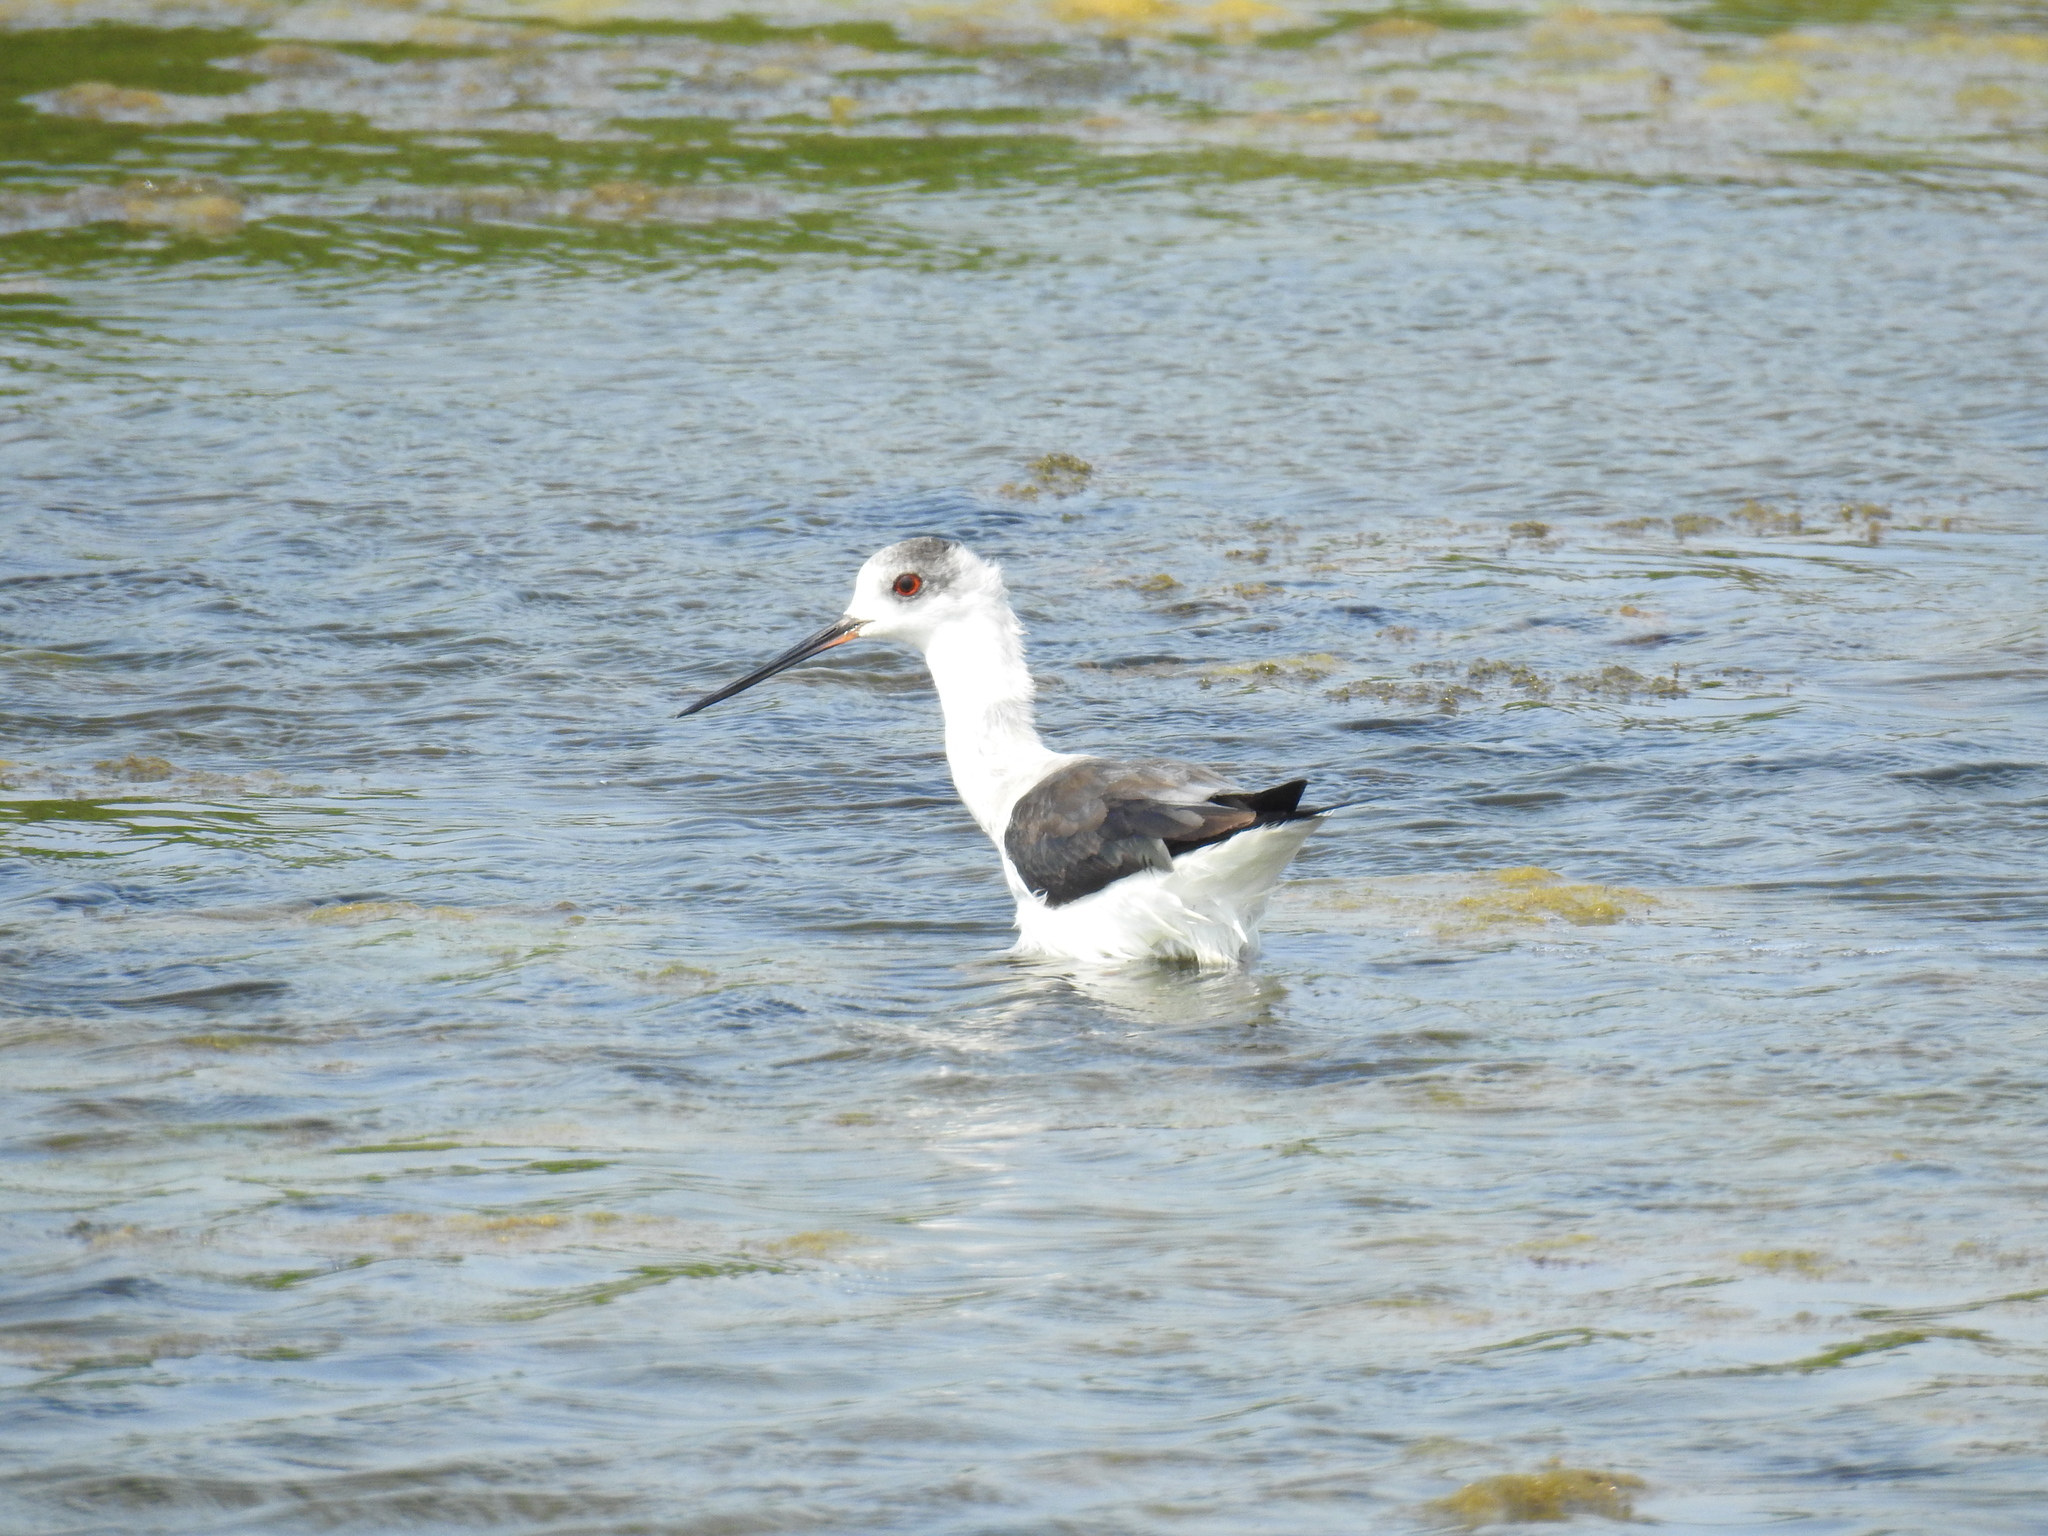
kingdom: Animalia
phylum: Chordata
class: Aves
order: Charadriiformes
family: Recurvirostridae
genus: Himantopus
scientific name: Himantopus himantopus
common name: Black-winged stilt
